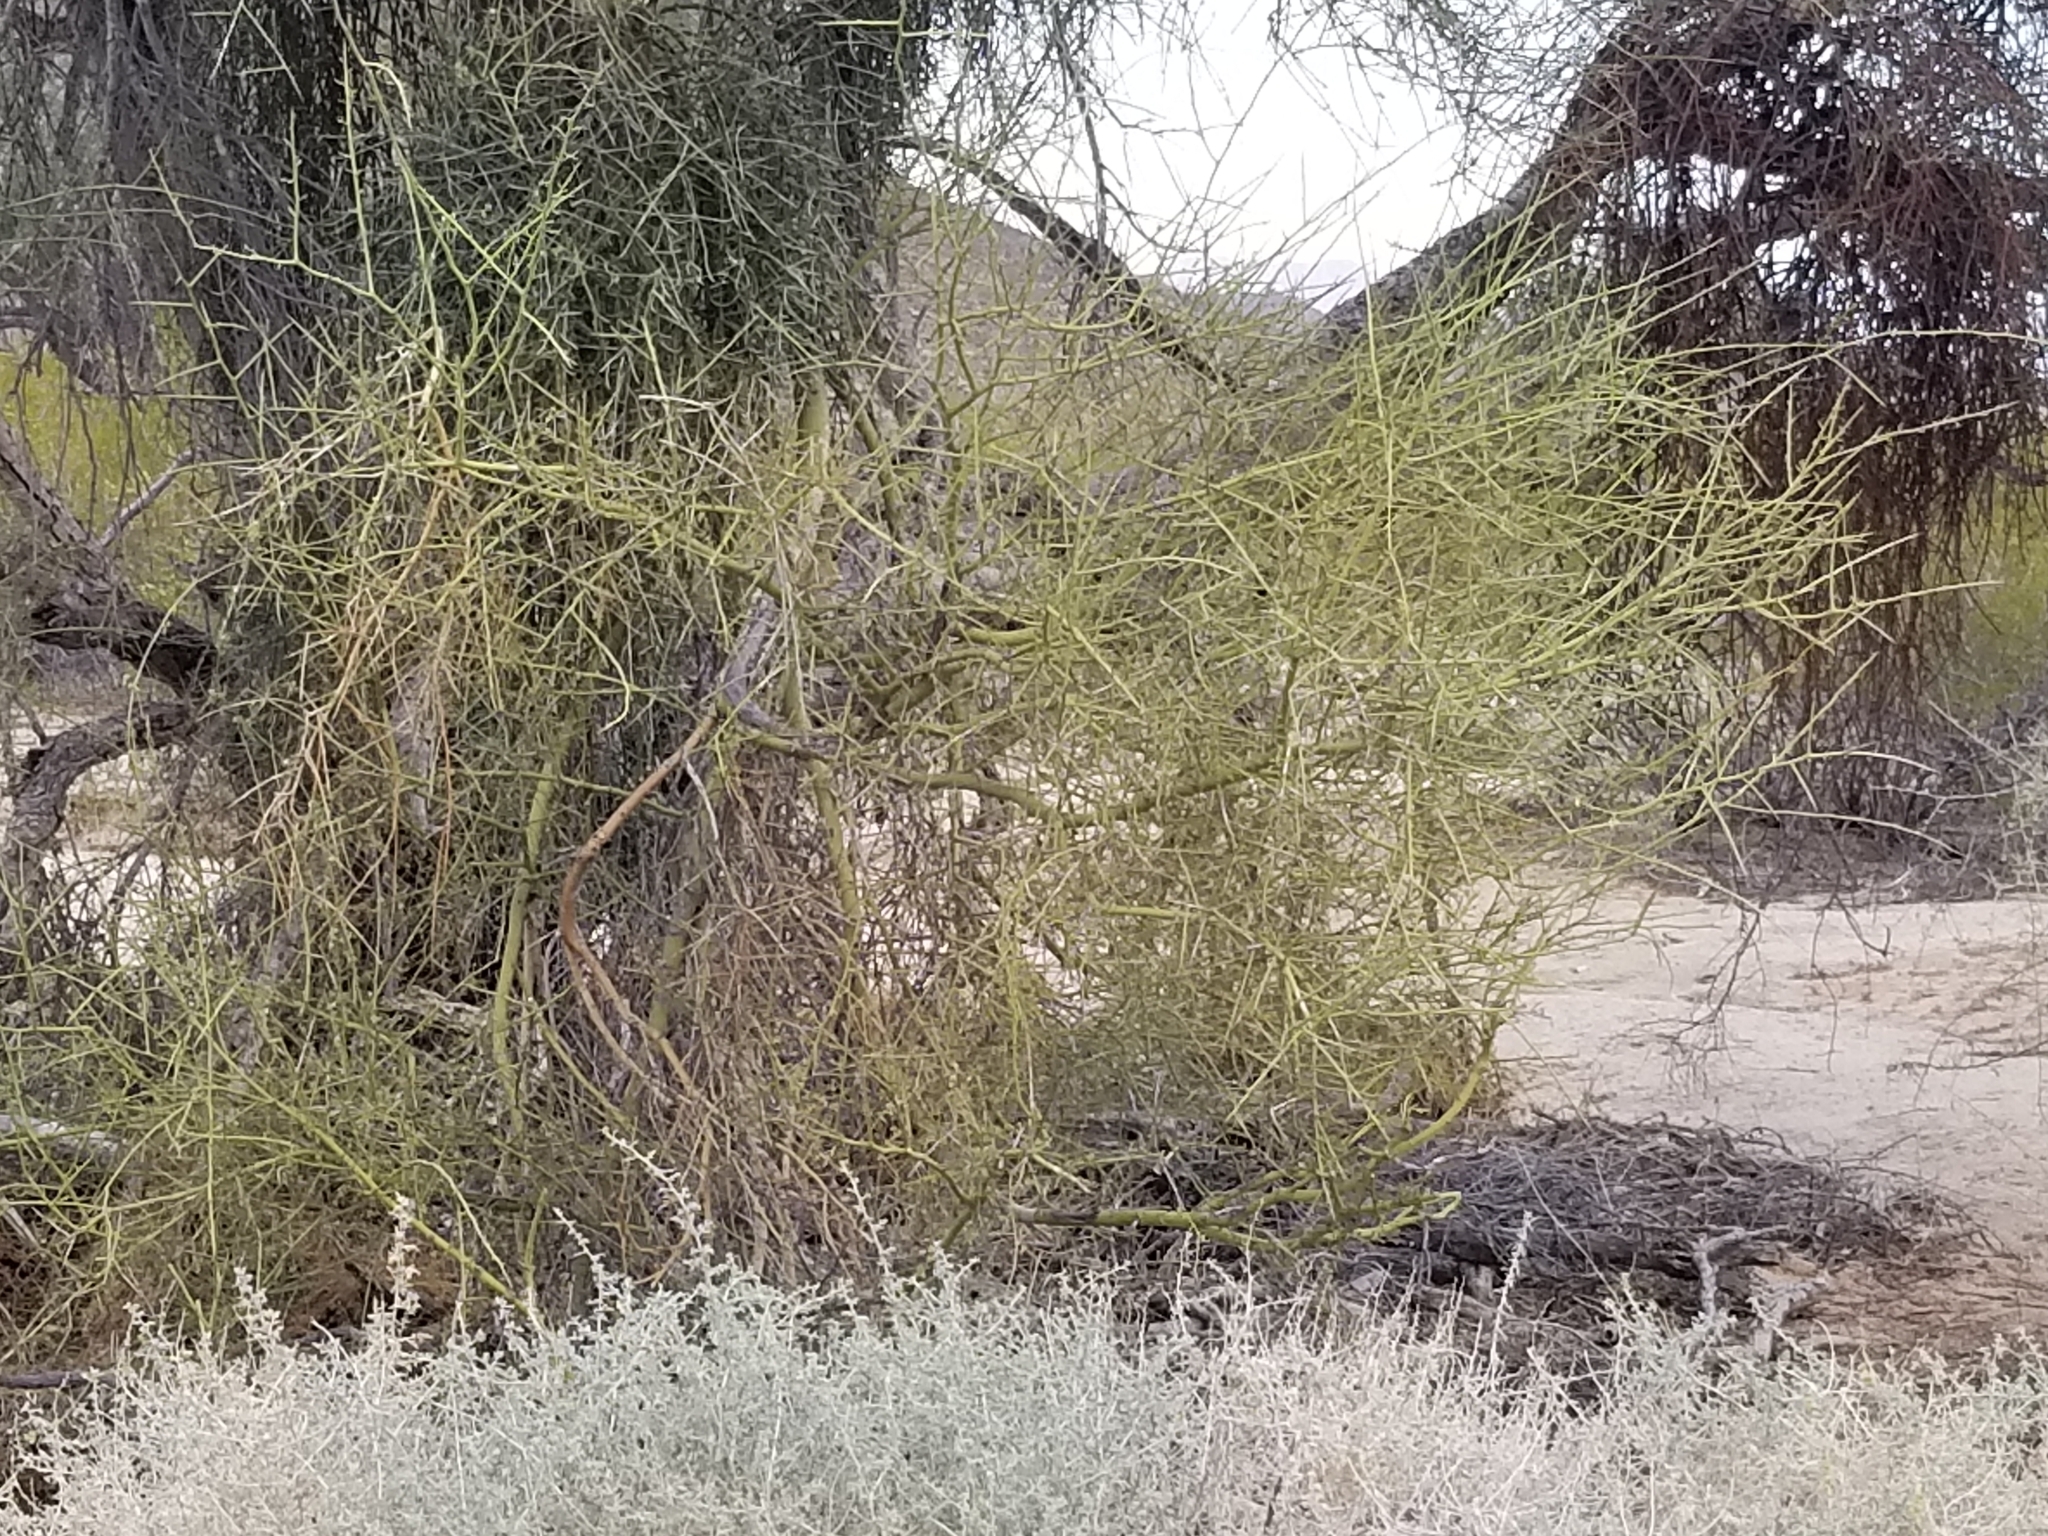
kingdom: Plantae
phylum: Tracheophyta
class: Magnoliopsida
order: Fabales
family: Fabaceae
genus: Parkinsonia
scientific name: Parkinsonia florida
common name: Blue paloverde
